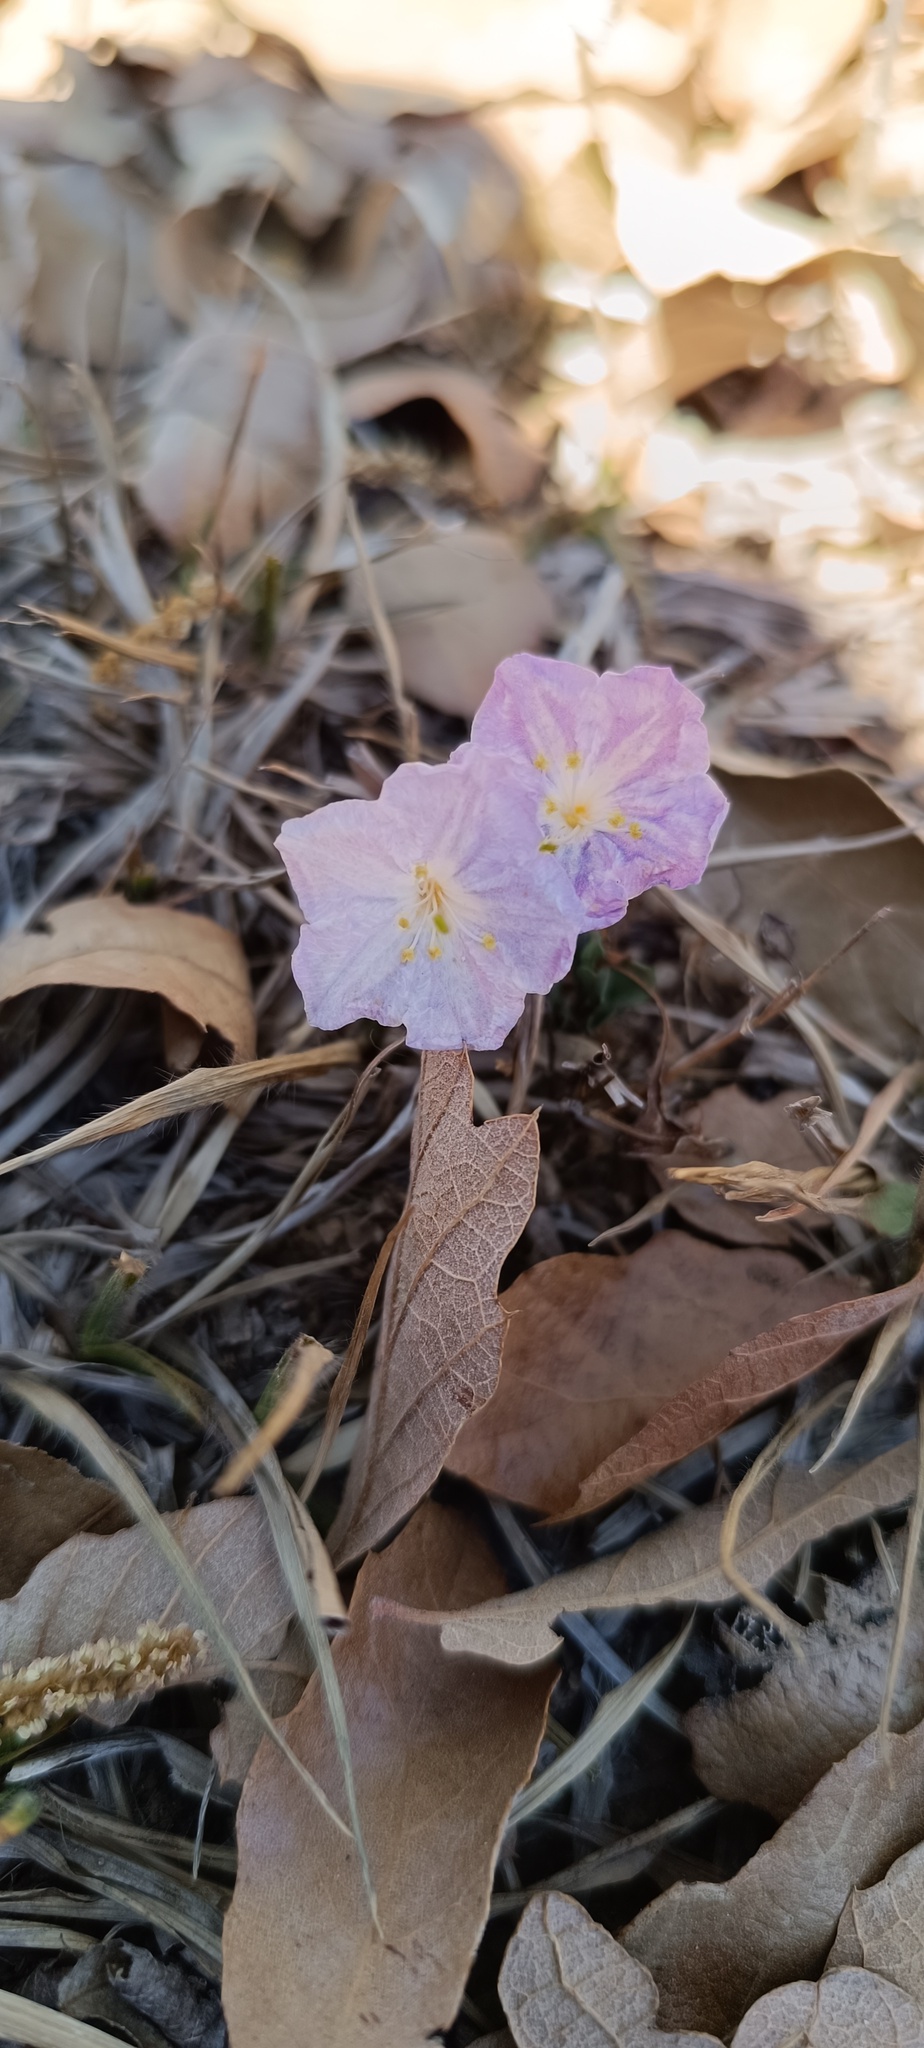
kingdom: Plantae
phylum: Tracheophyta
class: Magnoliopsida
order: Solanales
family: Solanaceae
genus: Salpiglossis
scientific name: Salpiglossis arniatera
